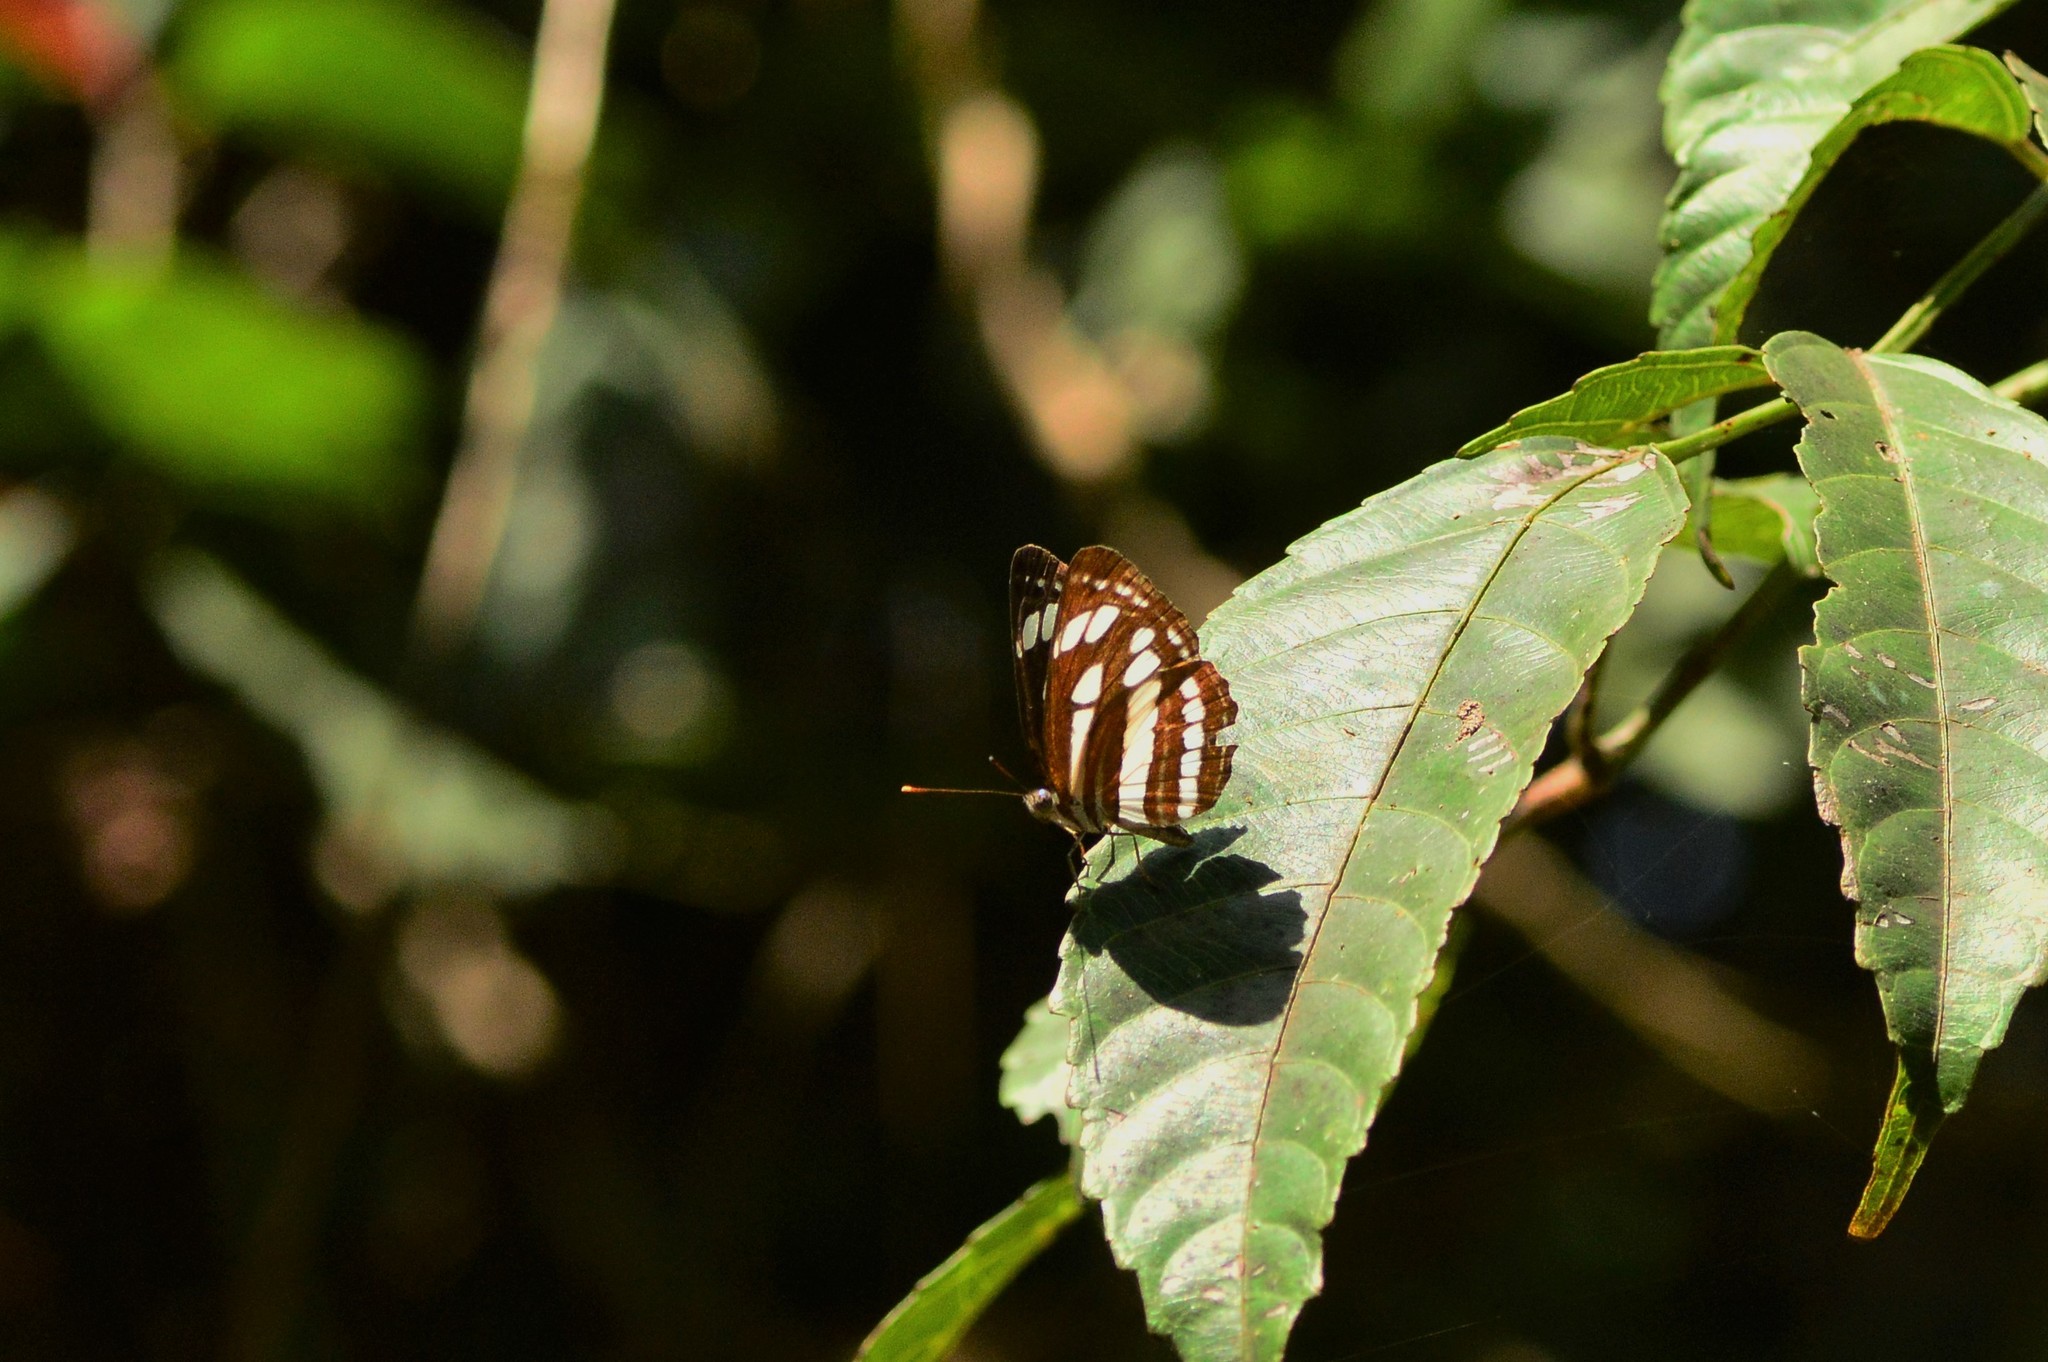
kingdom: Animalia
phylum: Arthropoda
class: Insecta
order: Lepidoptera
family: Nymphalidae
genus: Neptis
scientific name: Neptis hylas
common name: Common sailer
